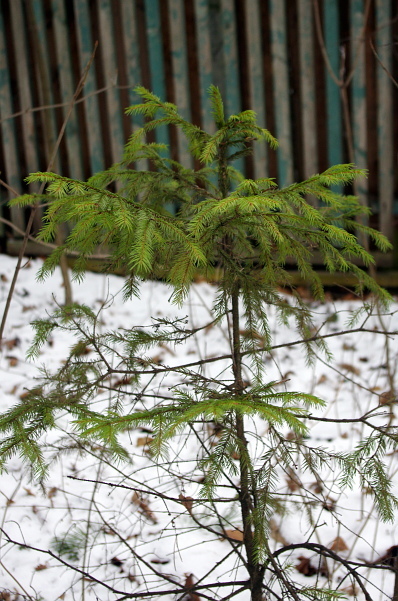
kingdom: Plantae
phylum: Tracheophyta
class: Pinopsida
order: Pinales
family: Pinaceae
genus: Picea
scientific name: Picea abies
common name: Norway spruce
